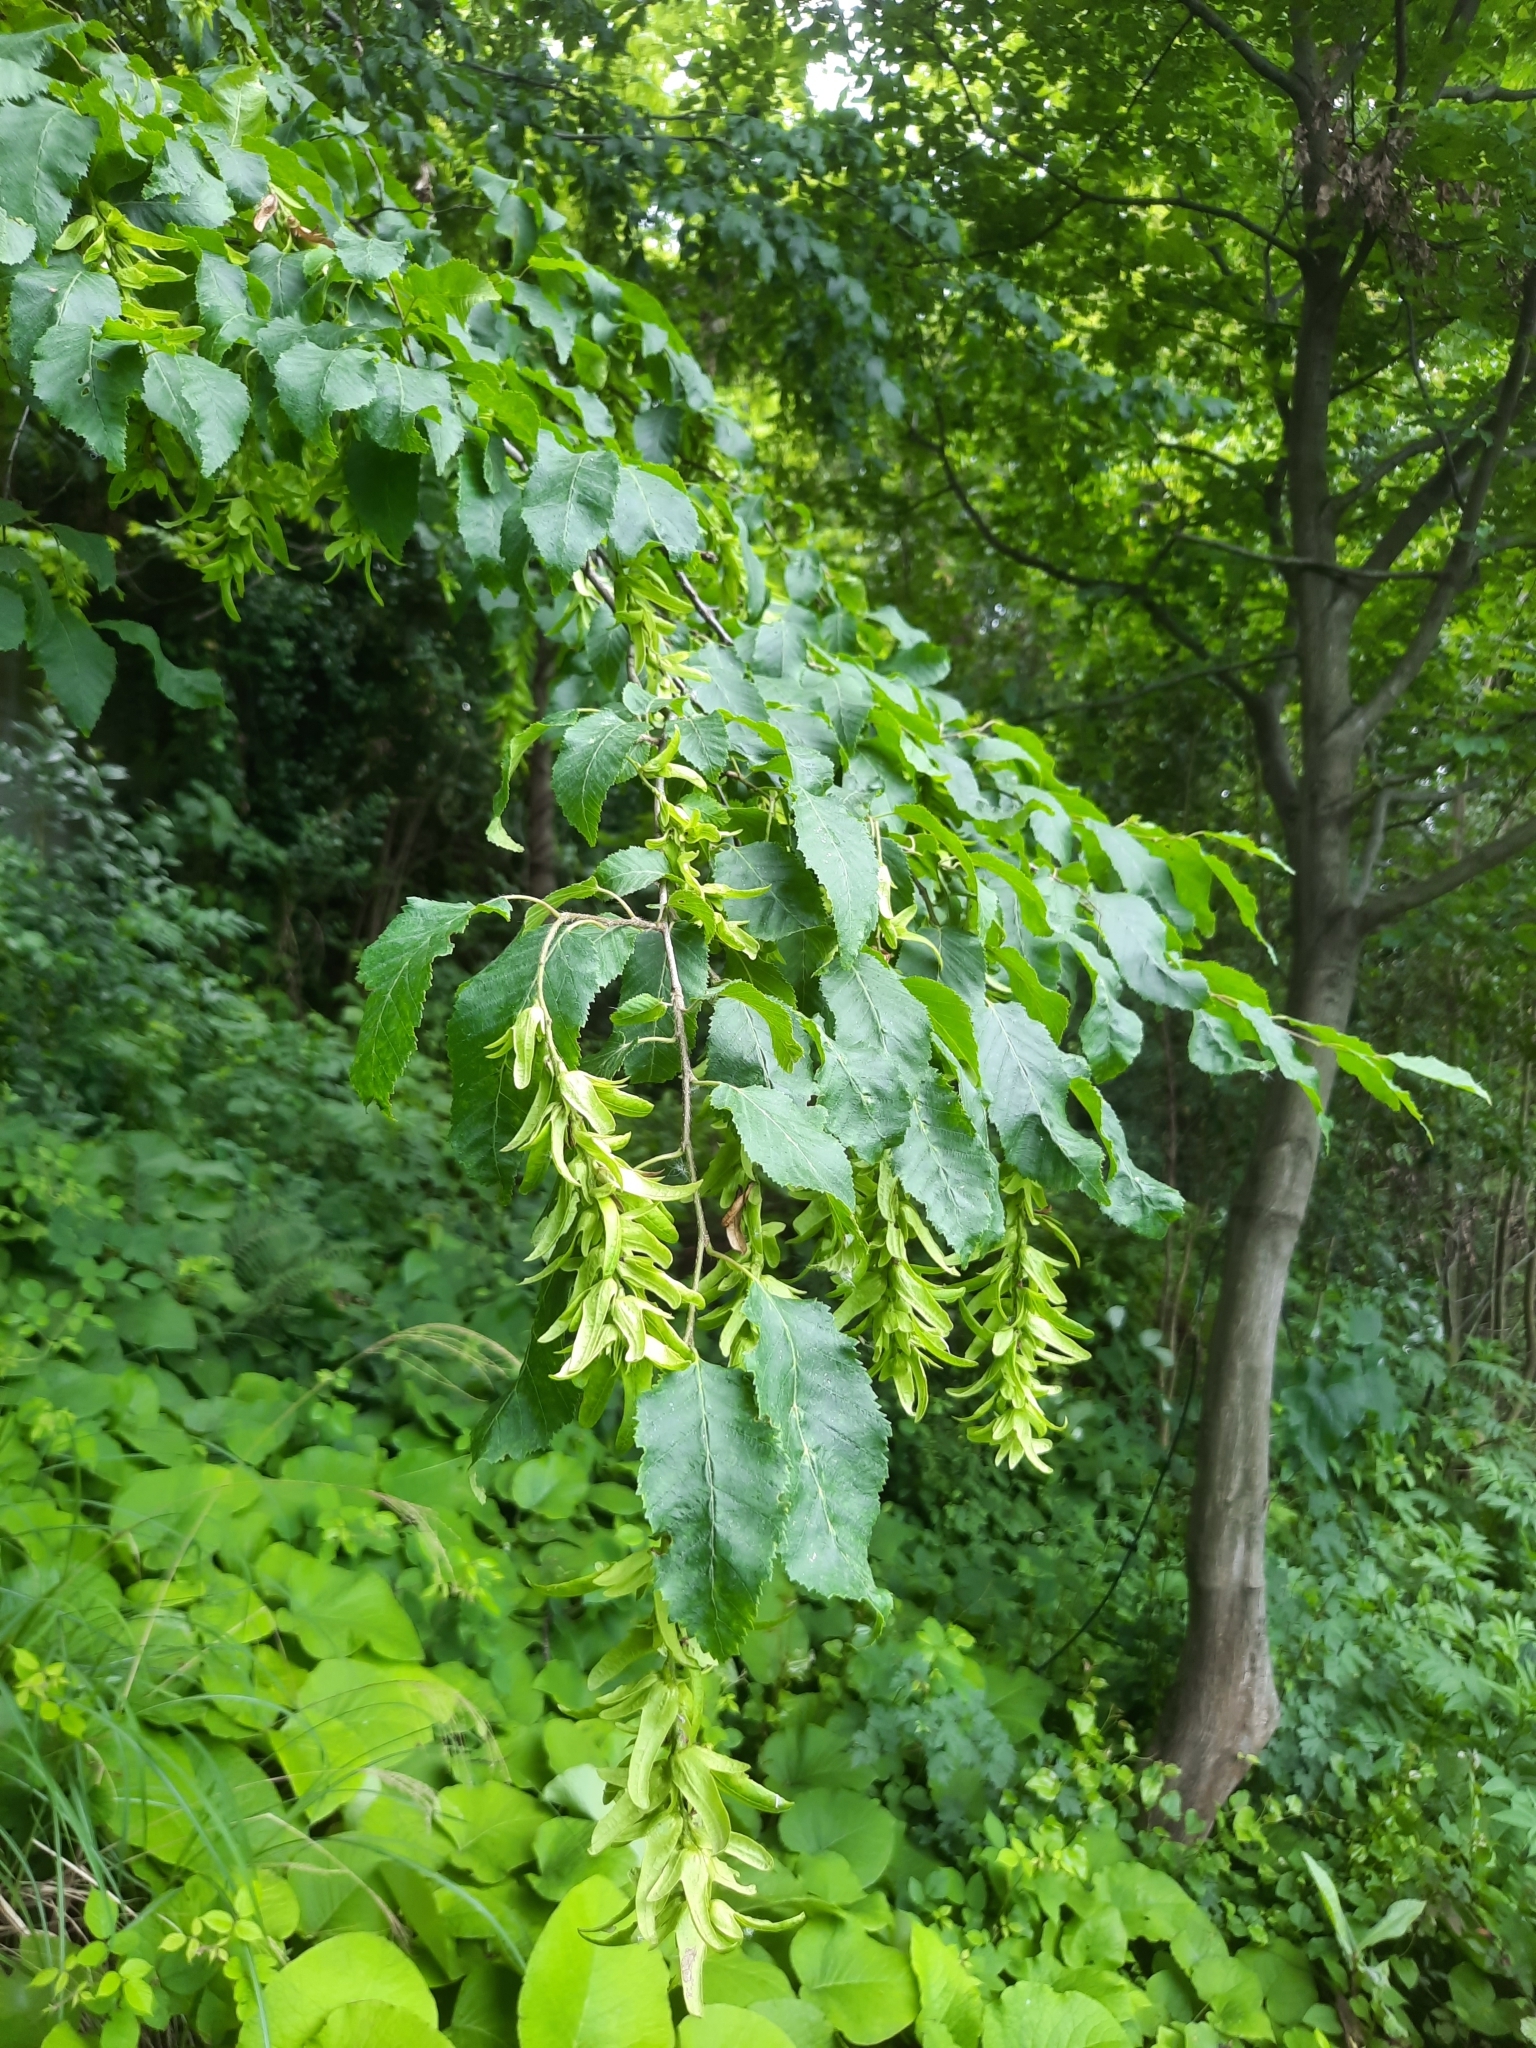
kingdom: Plantae
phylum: Tracheophyta
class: Magnoliopsida
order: Fagales
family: Betulaceae
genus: Carpinus
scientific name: Carpinus betulus
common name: Hornbeam
